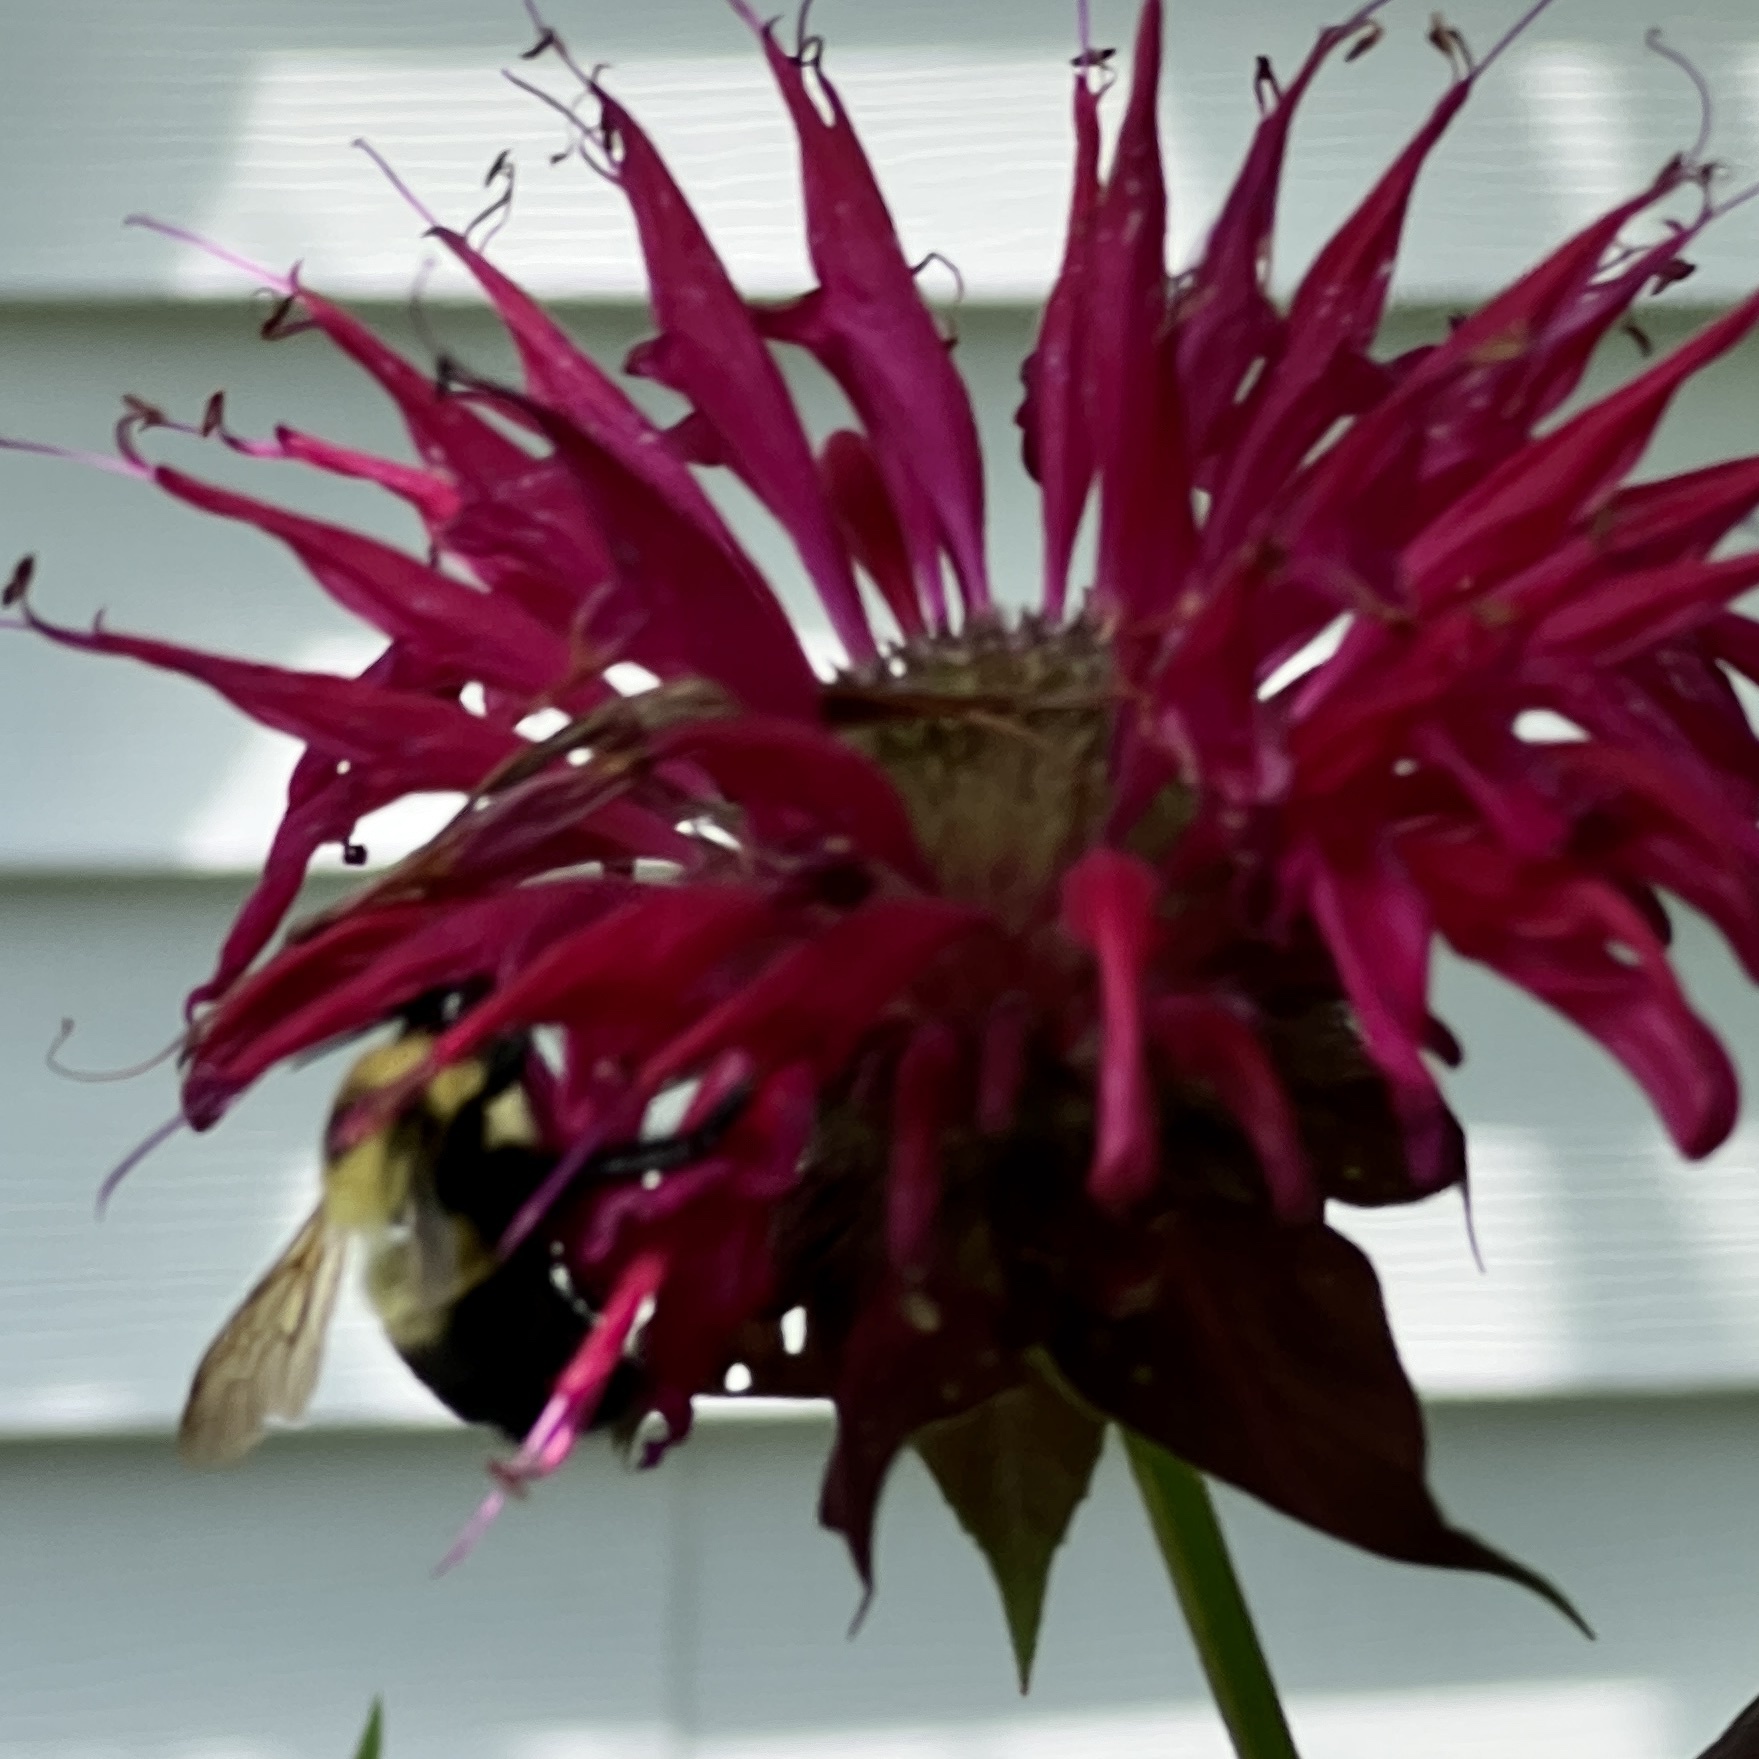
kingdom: Animalia
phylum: Arthropoda
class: Insecta
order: Hymenoptera
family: Apidae
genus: Bombus
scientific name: Bombus bimaculatus
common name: Two-spotted bumble bee
